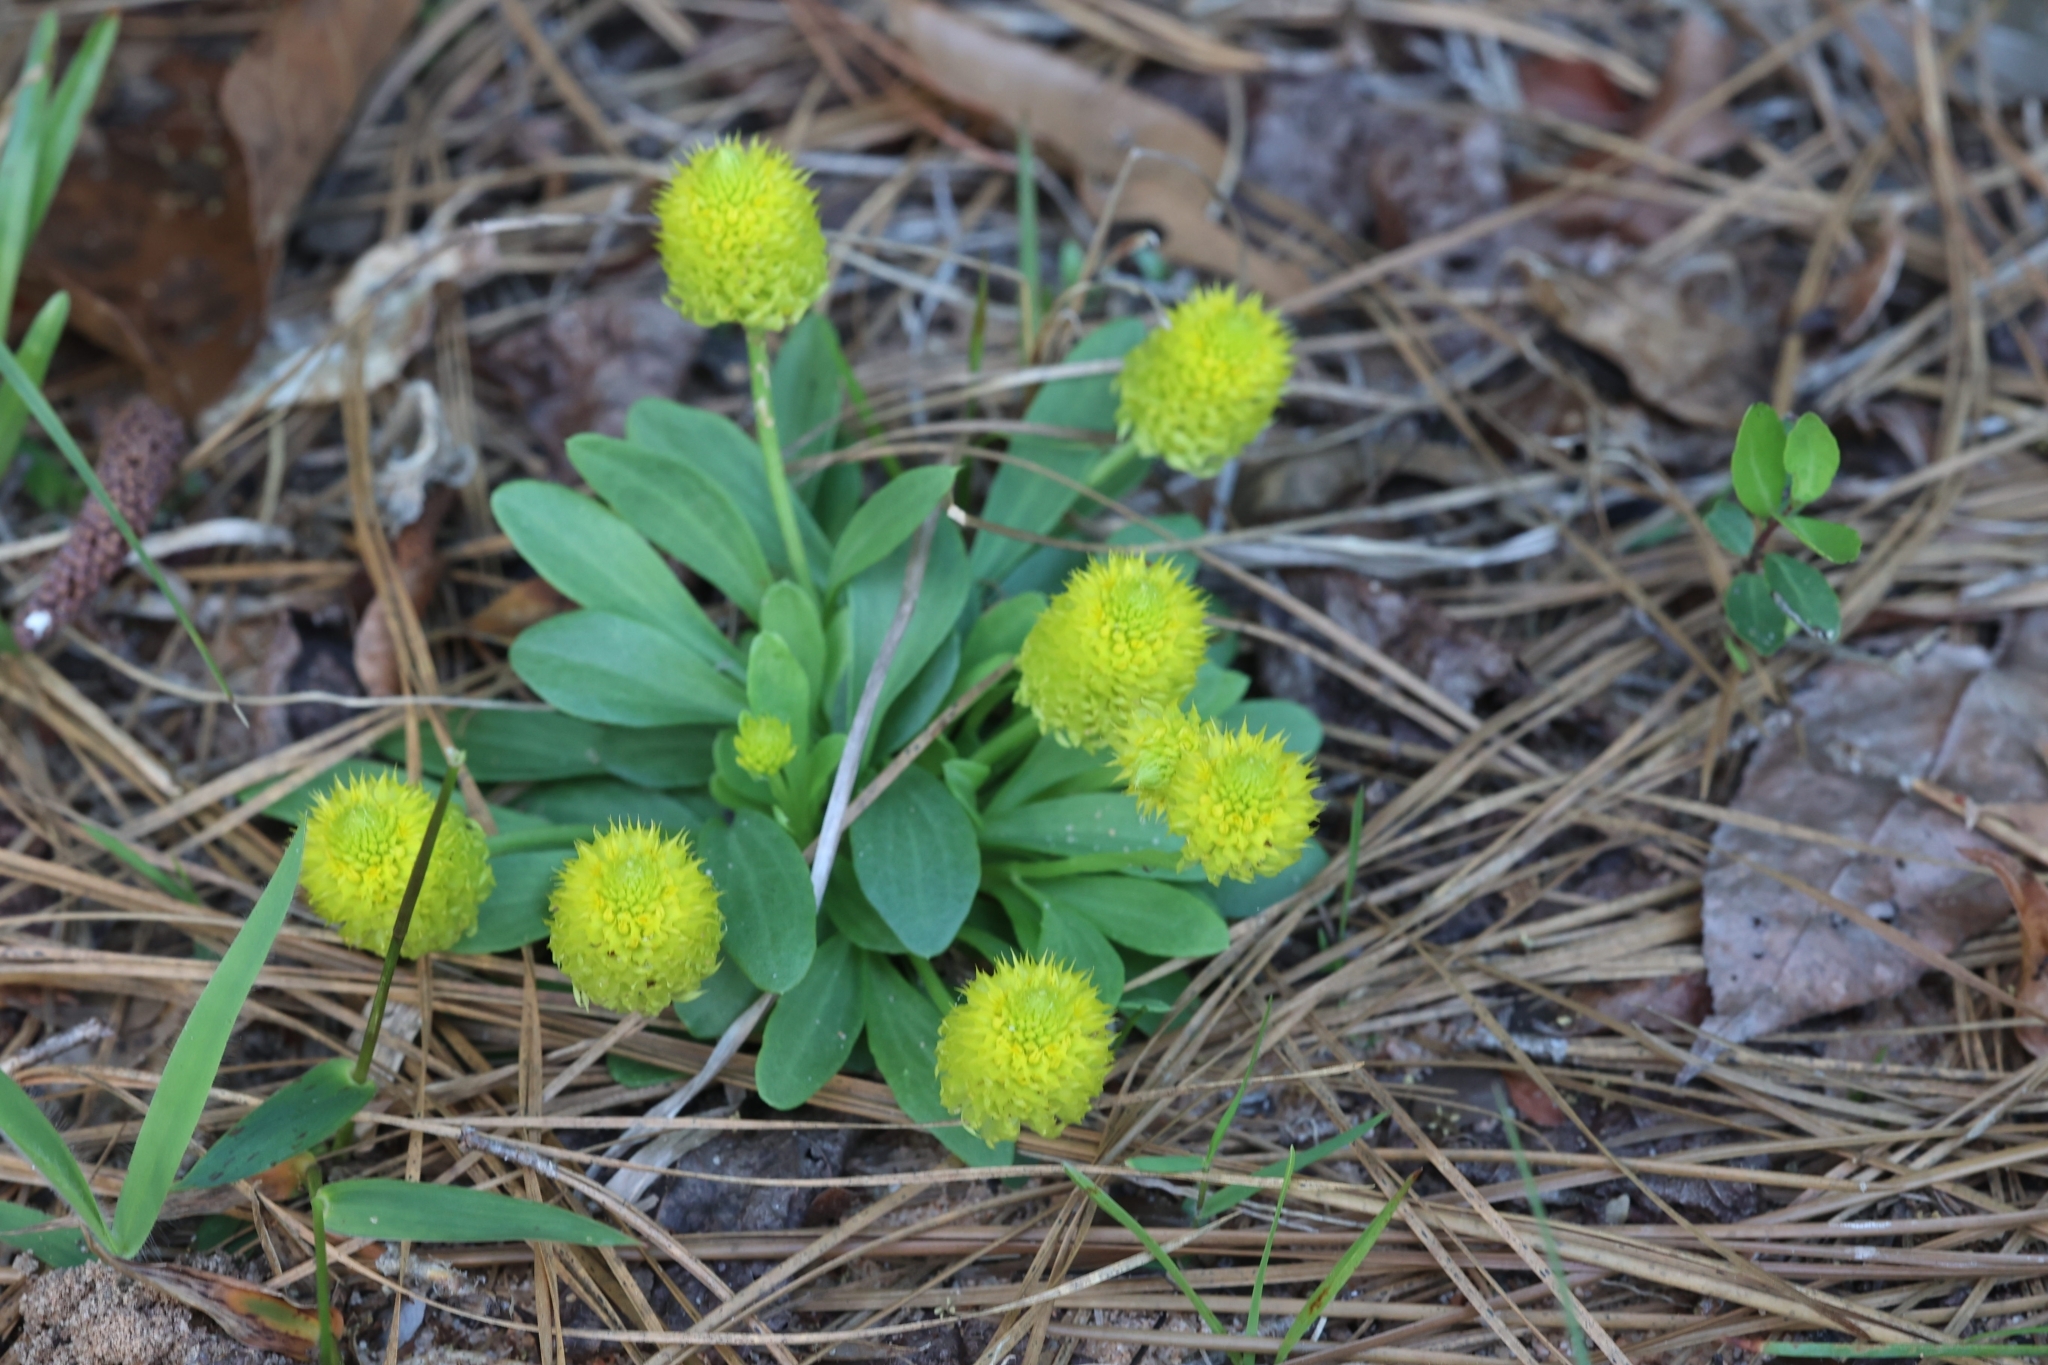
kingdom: Plantae
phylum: Tracheophyta
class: Magnoliopsida
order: Fabales
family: Polygalaceae
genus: Polygala
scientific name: Polygala nana
